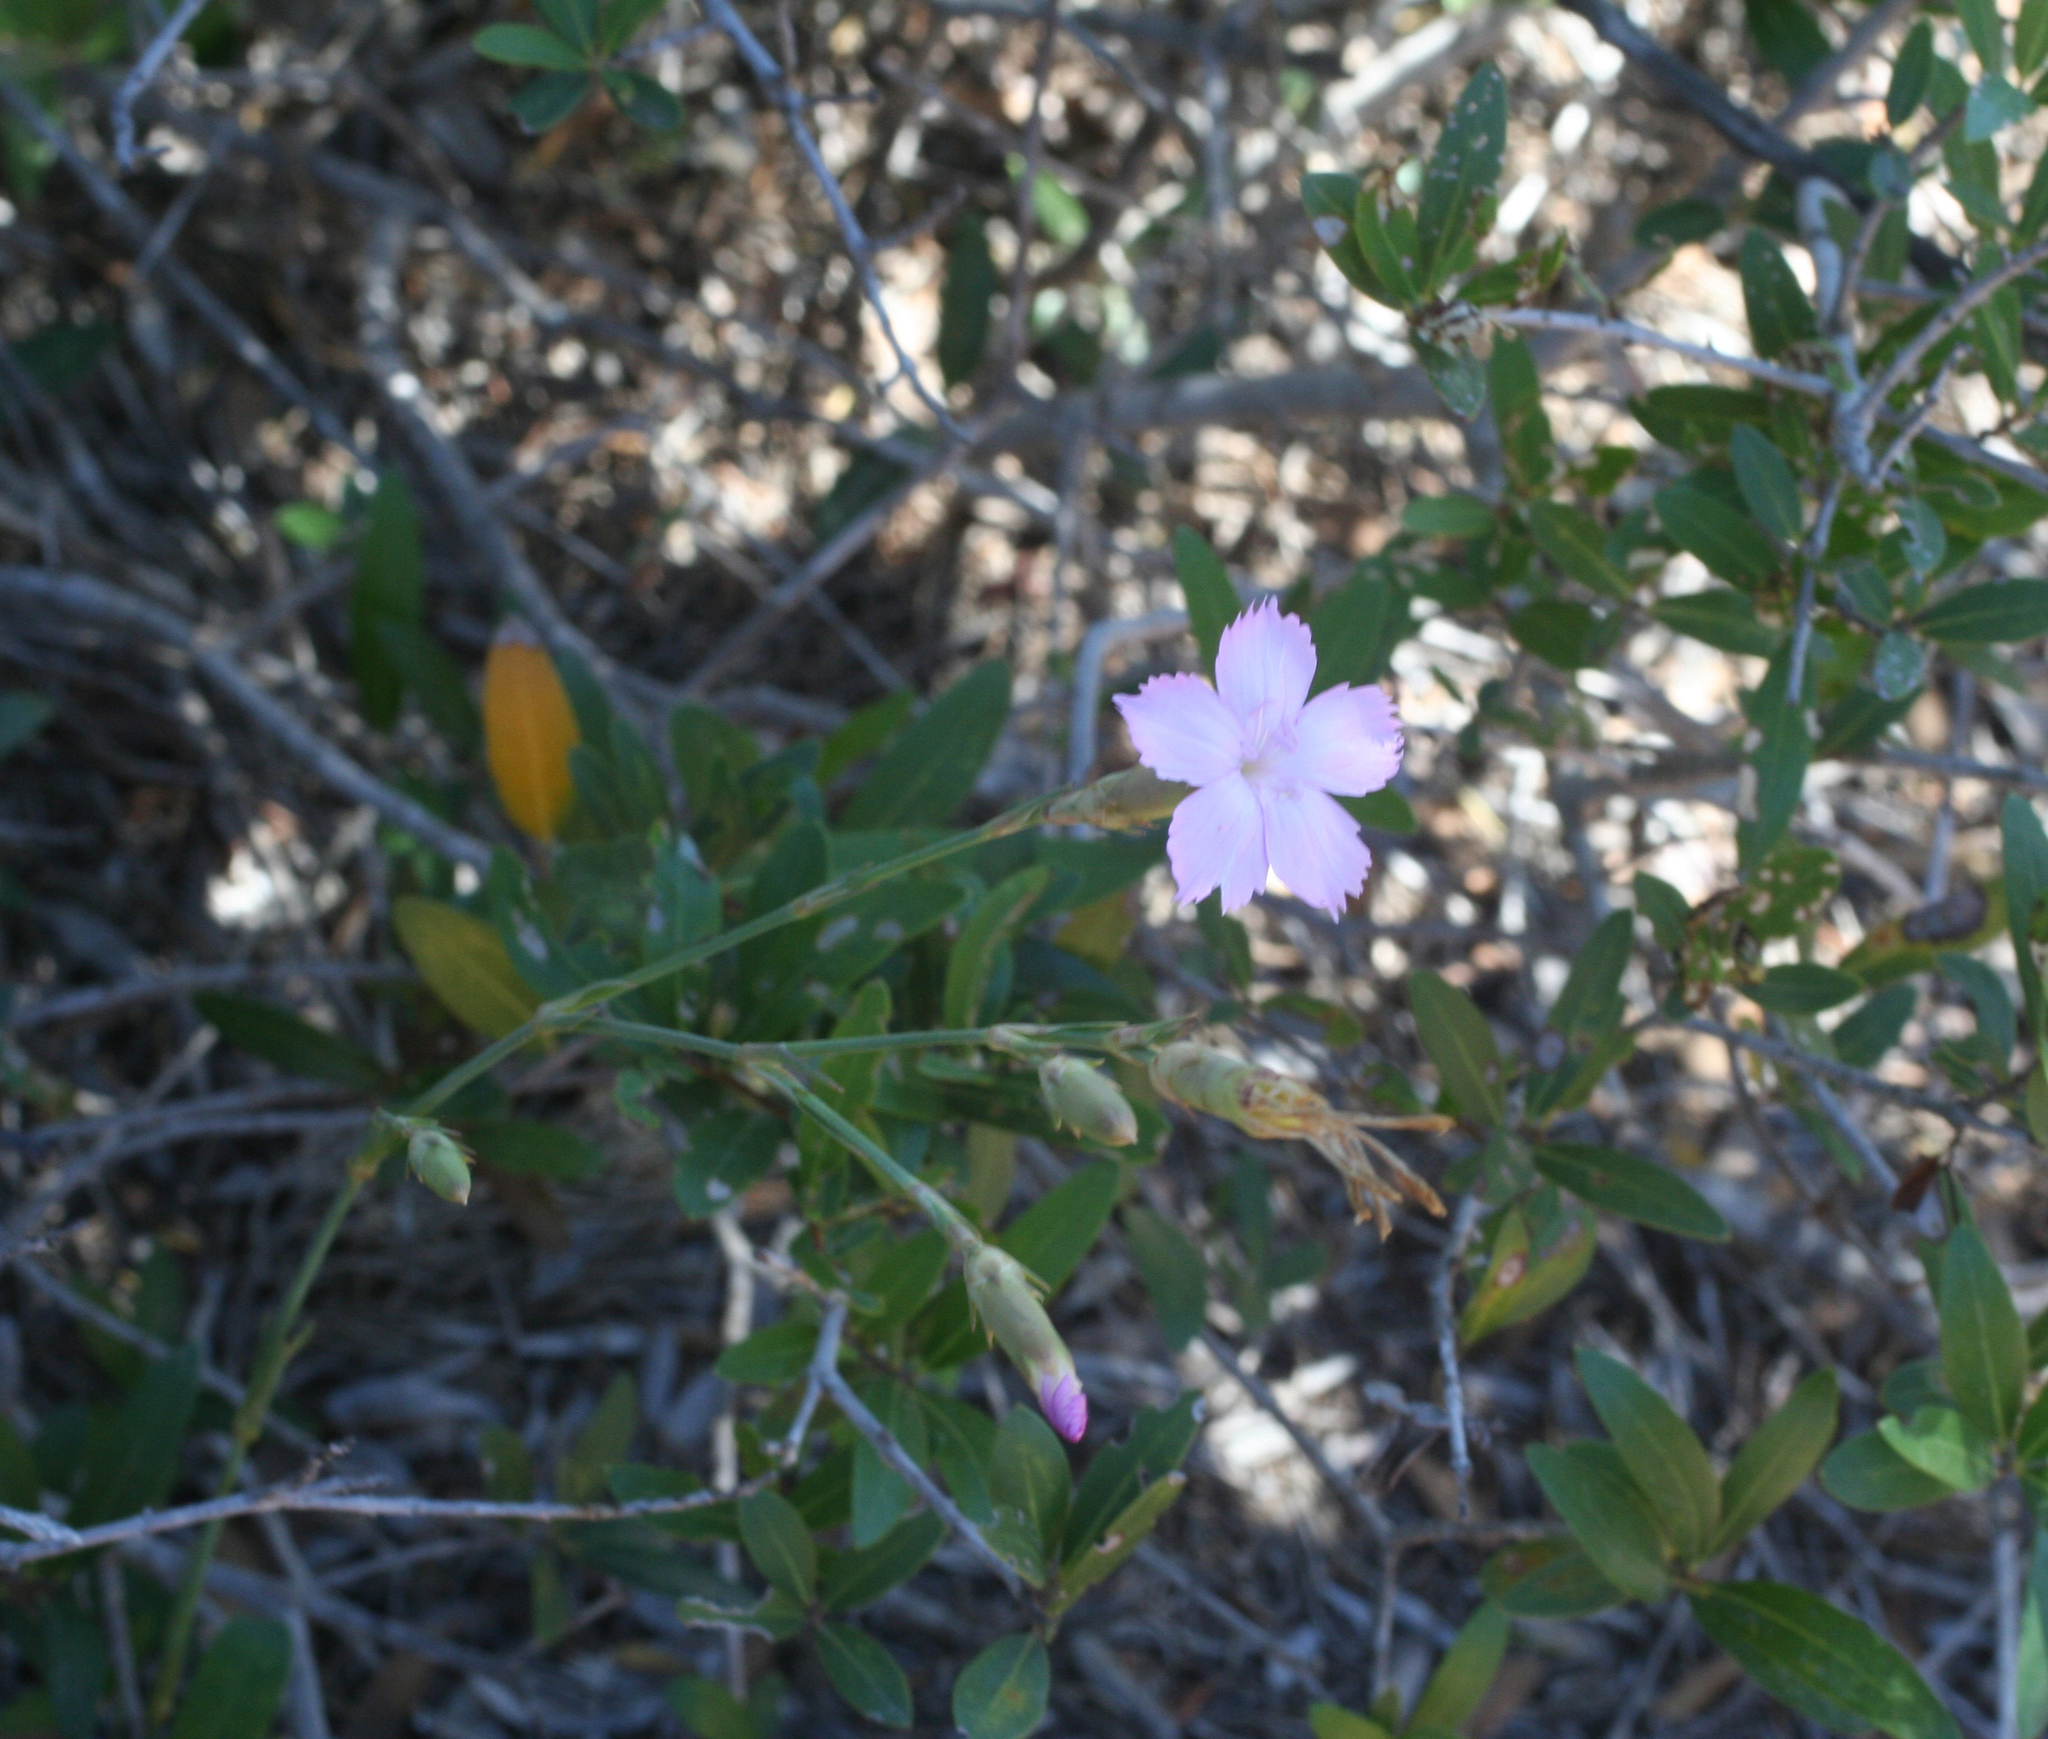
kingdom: Plantae
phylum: Tracheophyta
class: Magnoliopsida
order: Caryophyllales
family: Caryophyllaceae
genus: Dianthus
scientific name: Dianthus sylvestris
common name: Wood pink
